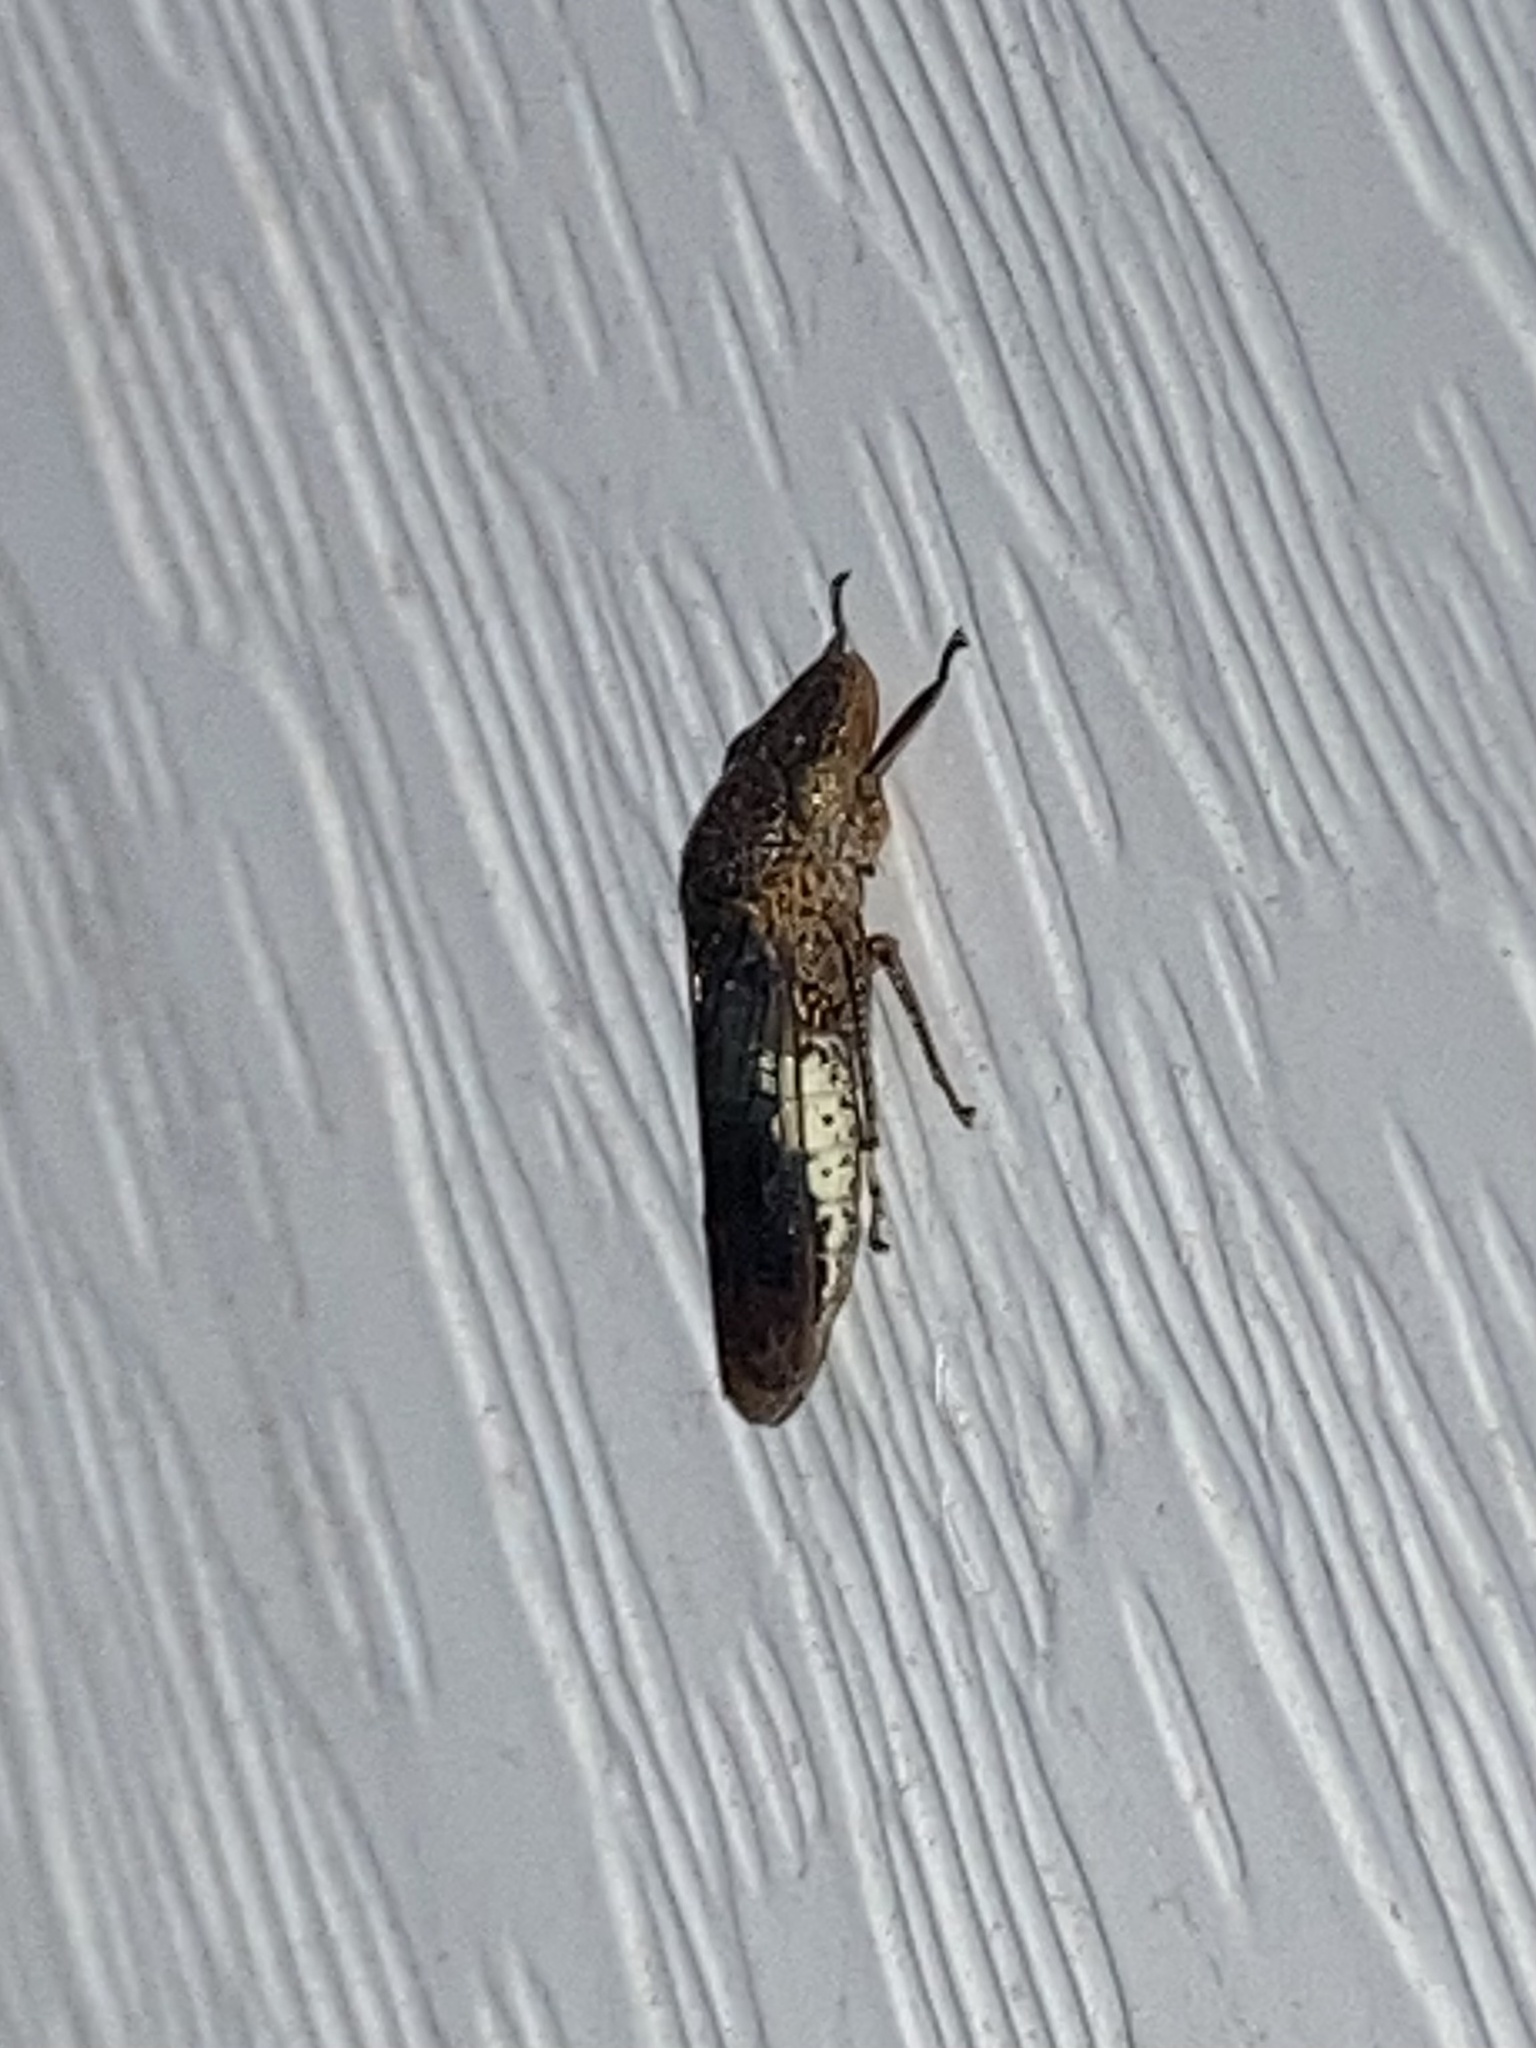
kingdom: Animalia
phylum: Arthropoda
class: Insecta
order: Hemiptera
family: Cicadellidae
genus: Homalodisca
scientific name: Homalodisca vitripennis
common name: Glassy-winged sharpshooter
